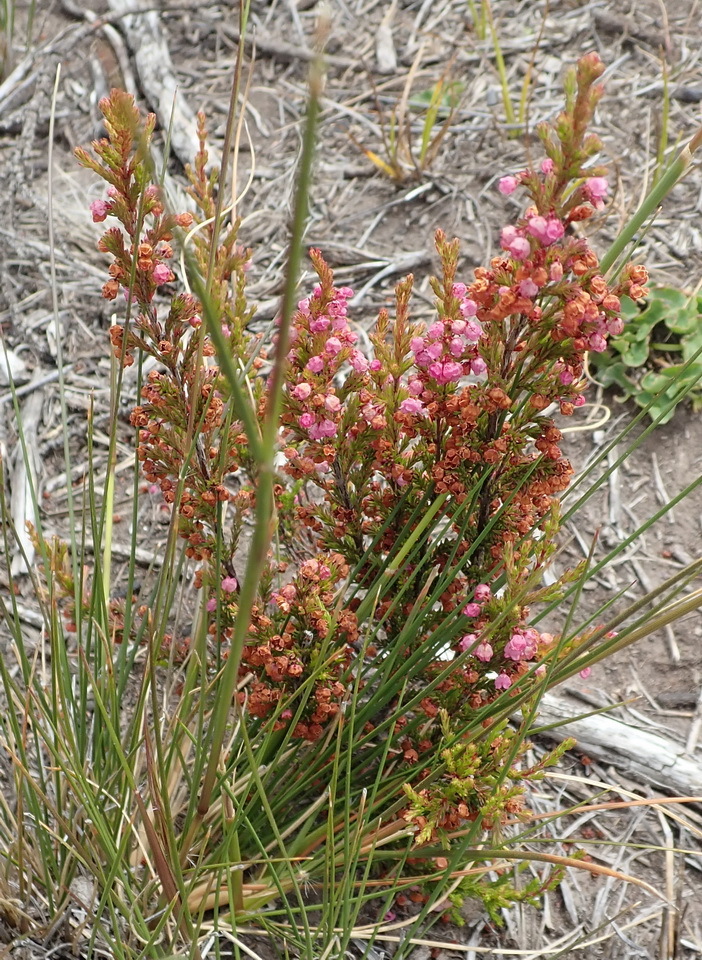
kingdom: Plantae
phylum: Tracheophyta
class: Magnoliopsida
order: Ericales
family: Ericaceae
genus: Erica
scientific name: Erica quadrangularis
